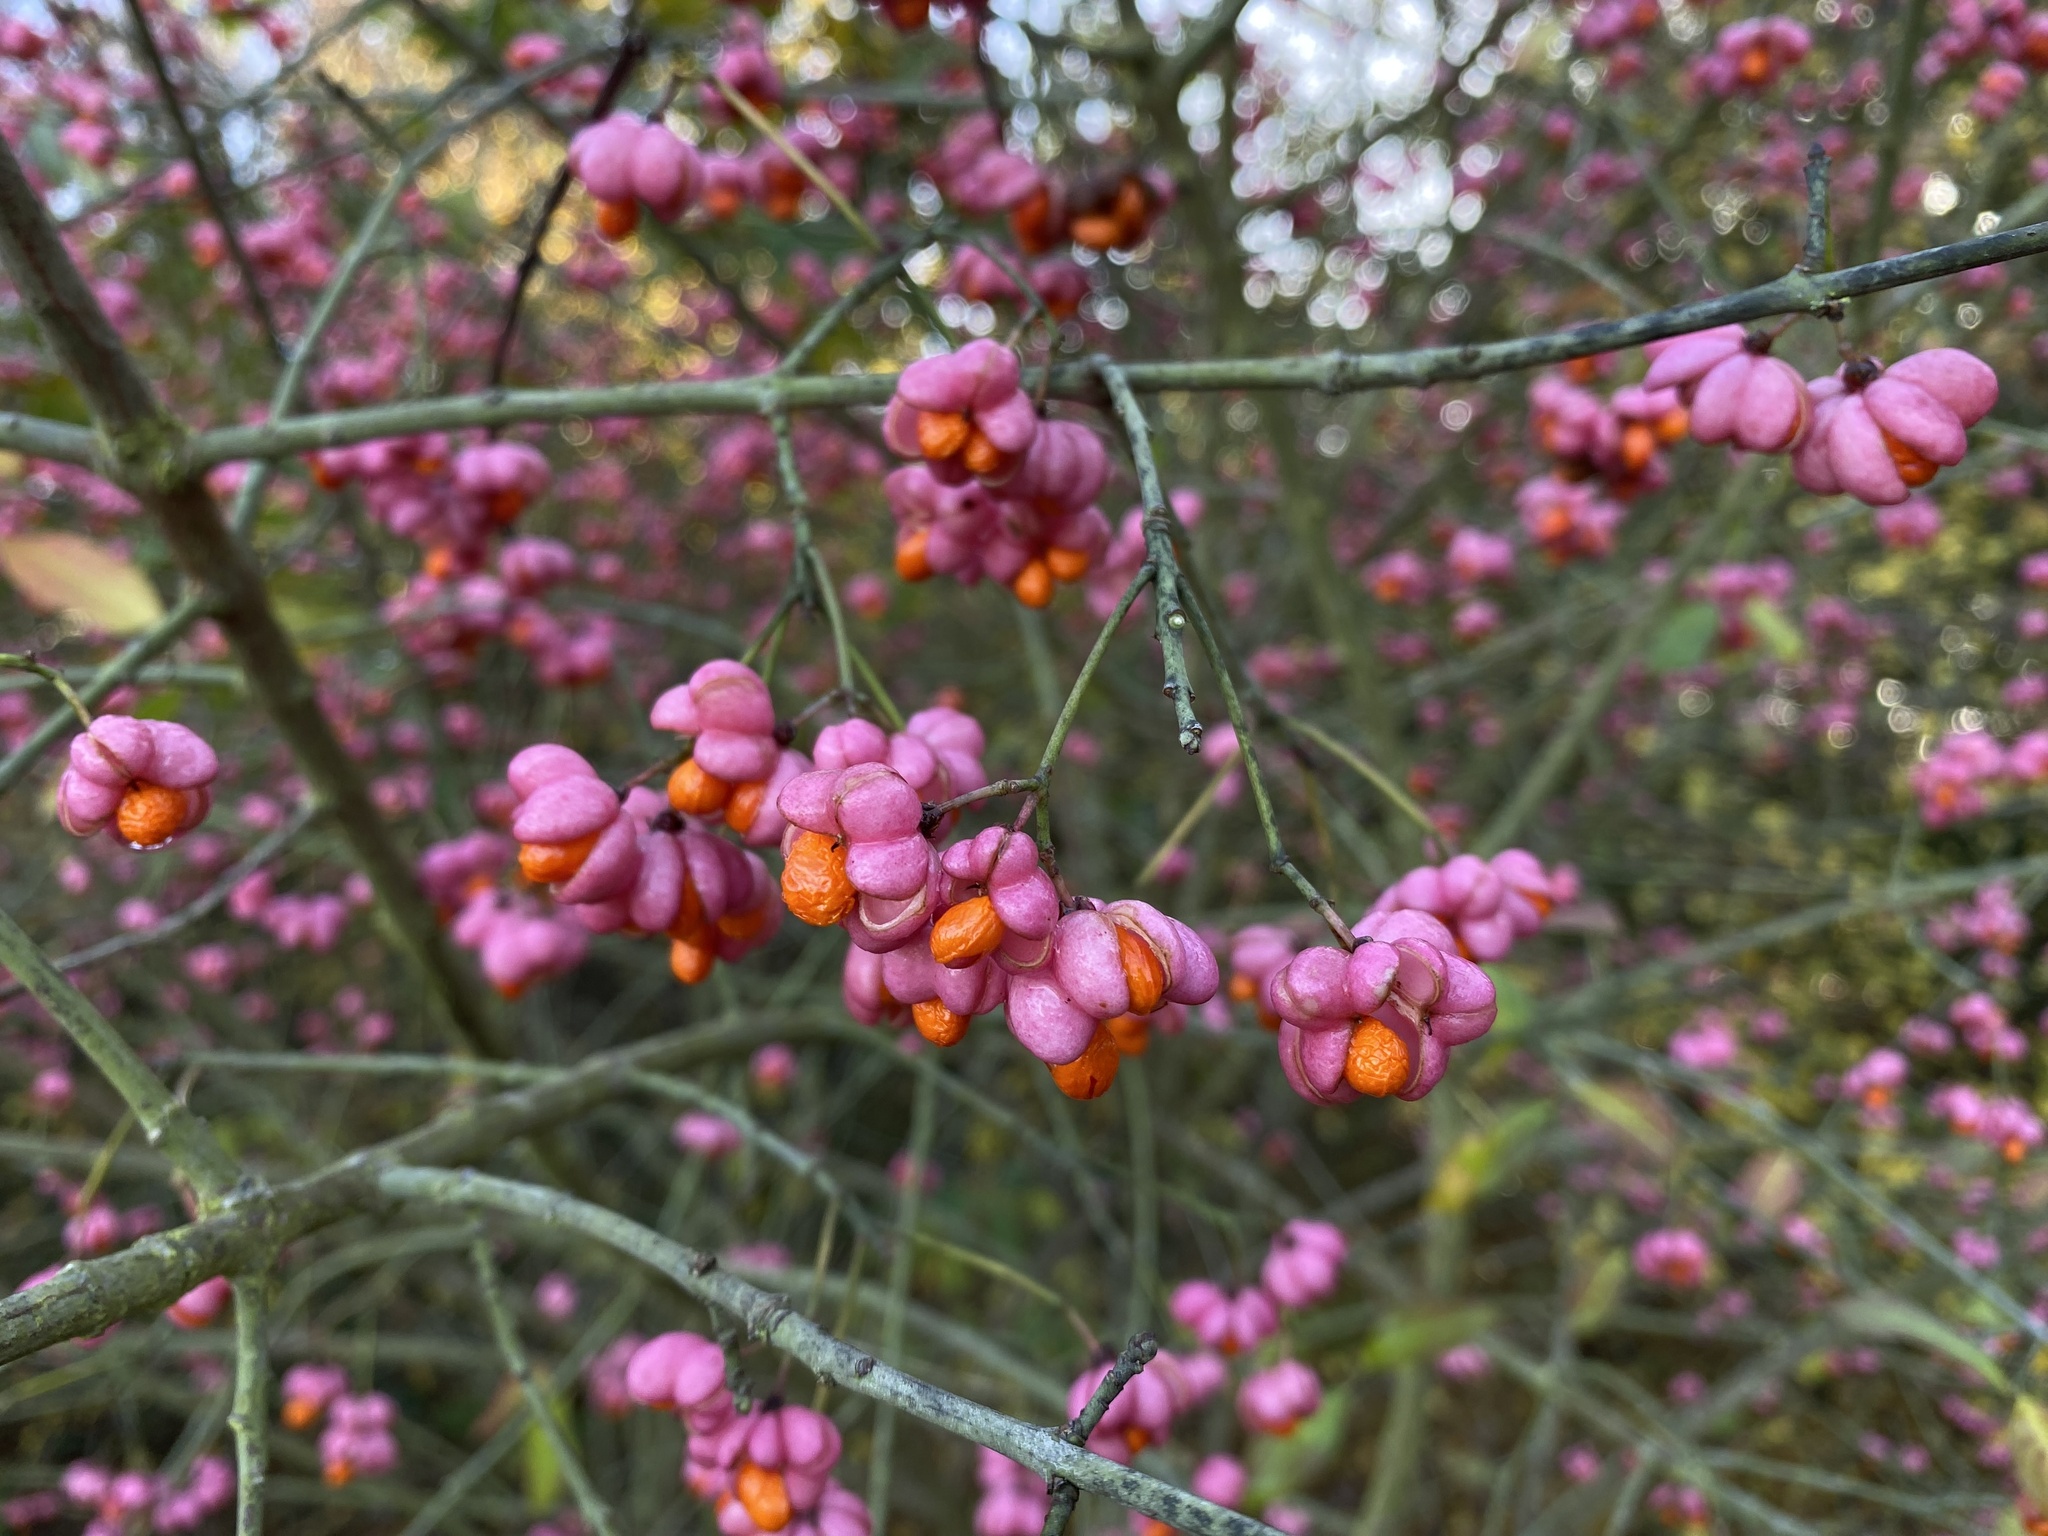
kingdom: Plantae
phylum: Tracheophyta
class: Magnoliopsida
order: Celastrales
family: Celastraceae
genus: Euonymus
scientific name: Euonymus europaeus
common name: Spindle
